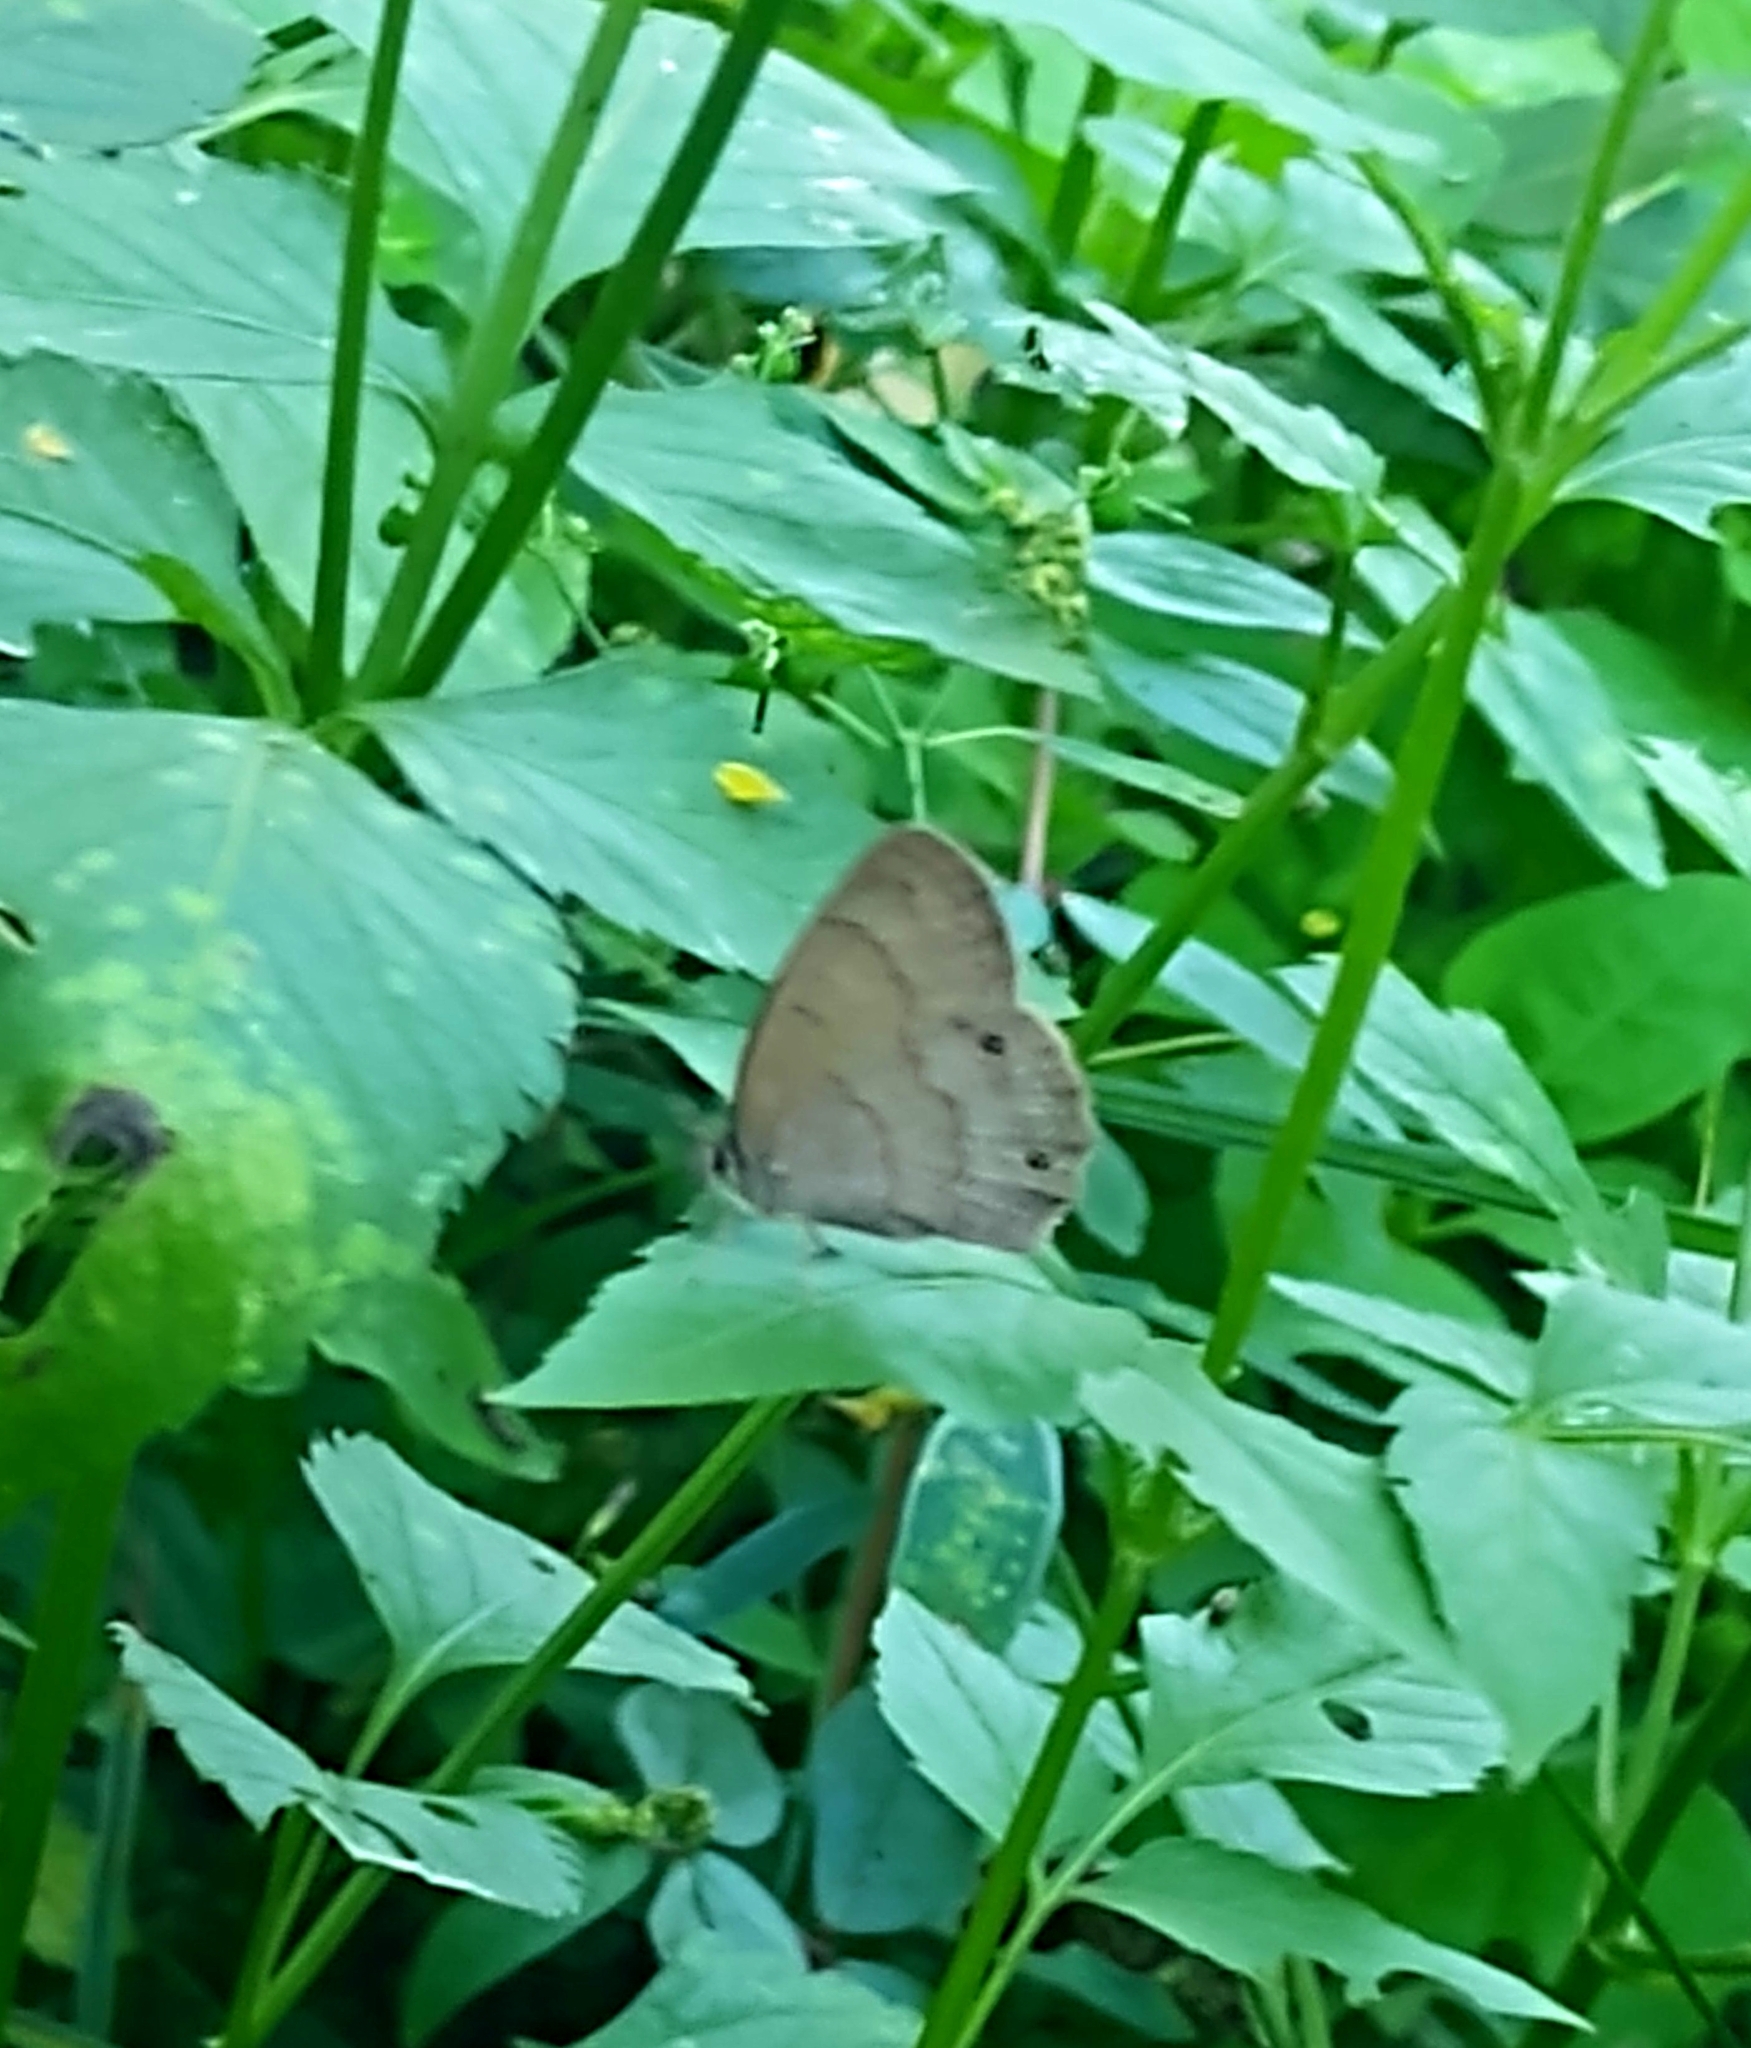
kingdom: Animalia
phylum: Arthropoda
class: Insecta
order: Lepidoptera
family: Nymphalidae
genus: Euptychia
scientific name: Euptychia Cissia eous
